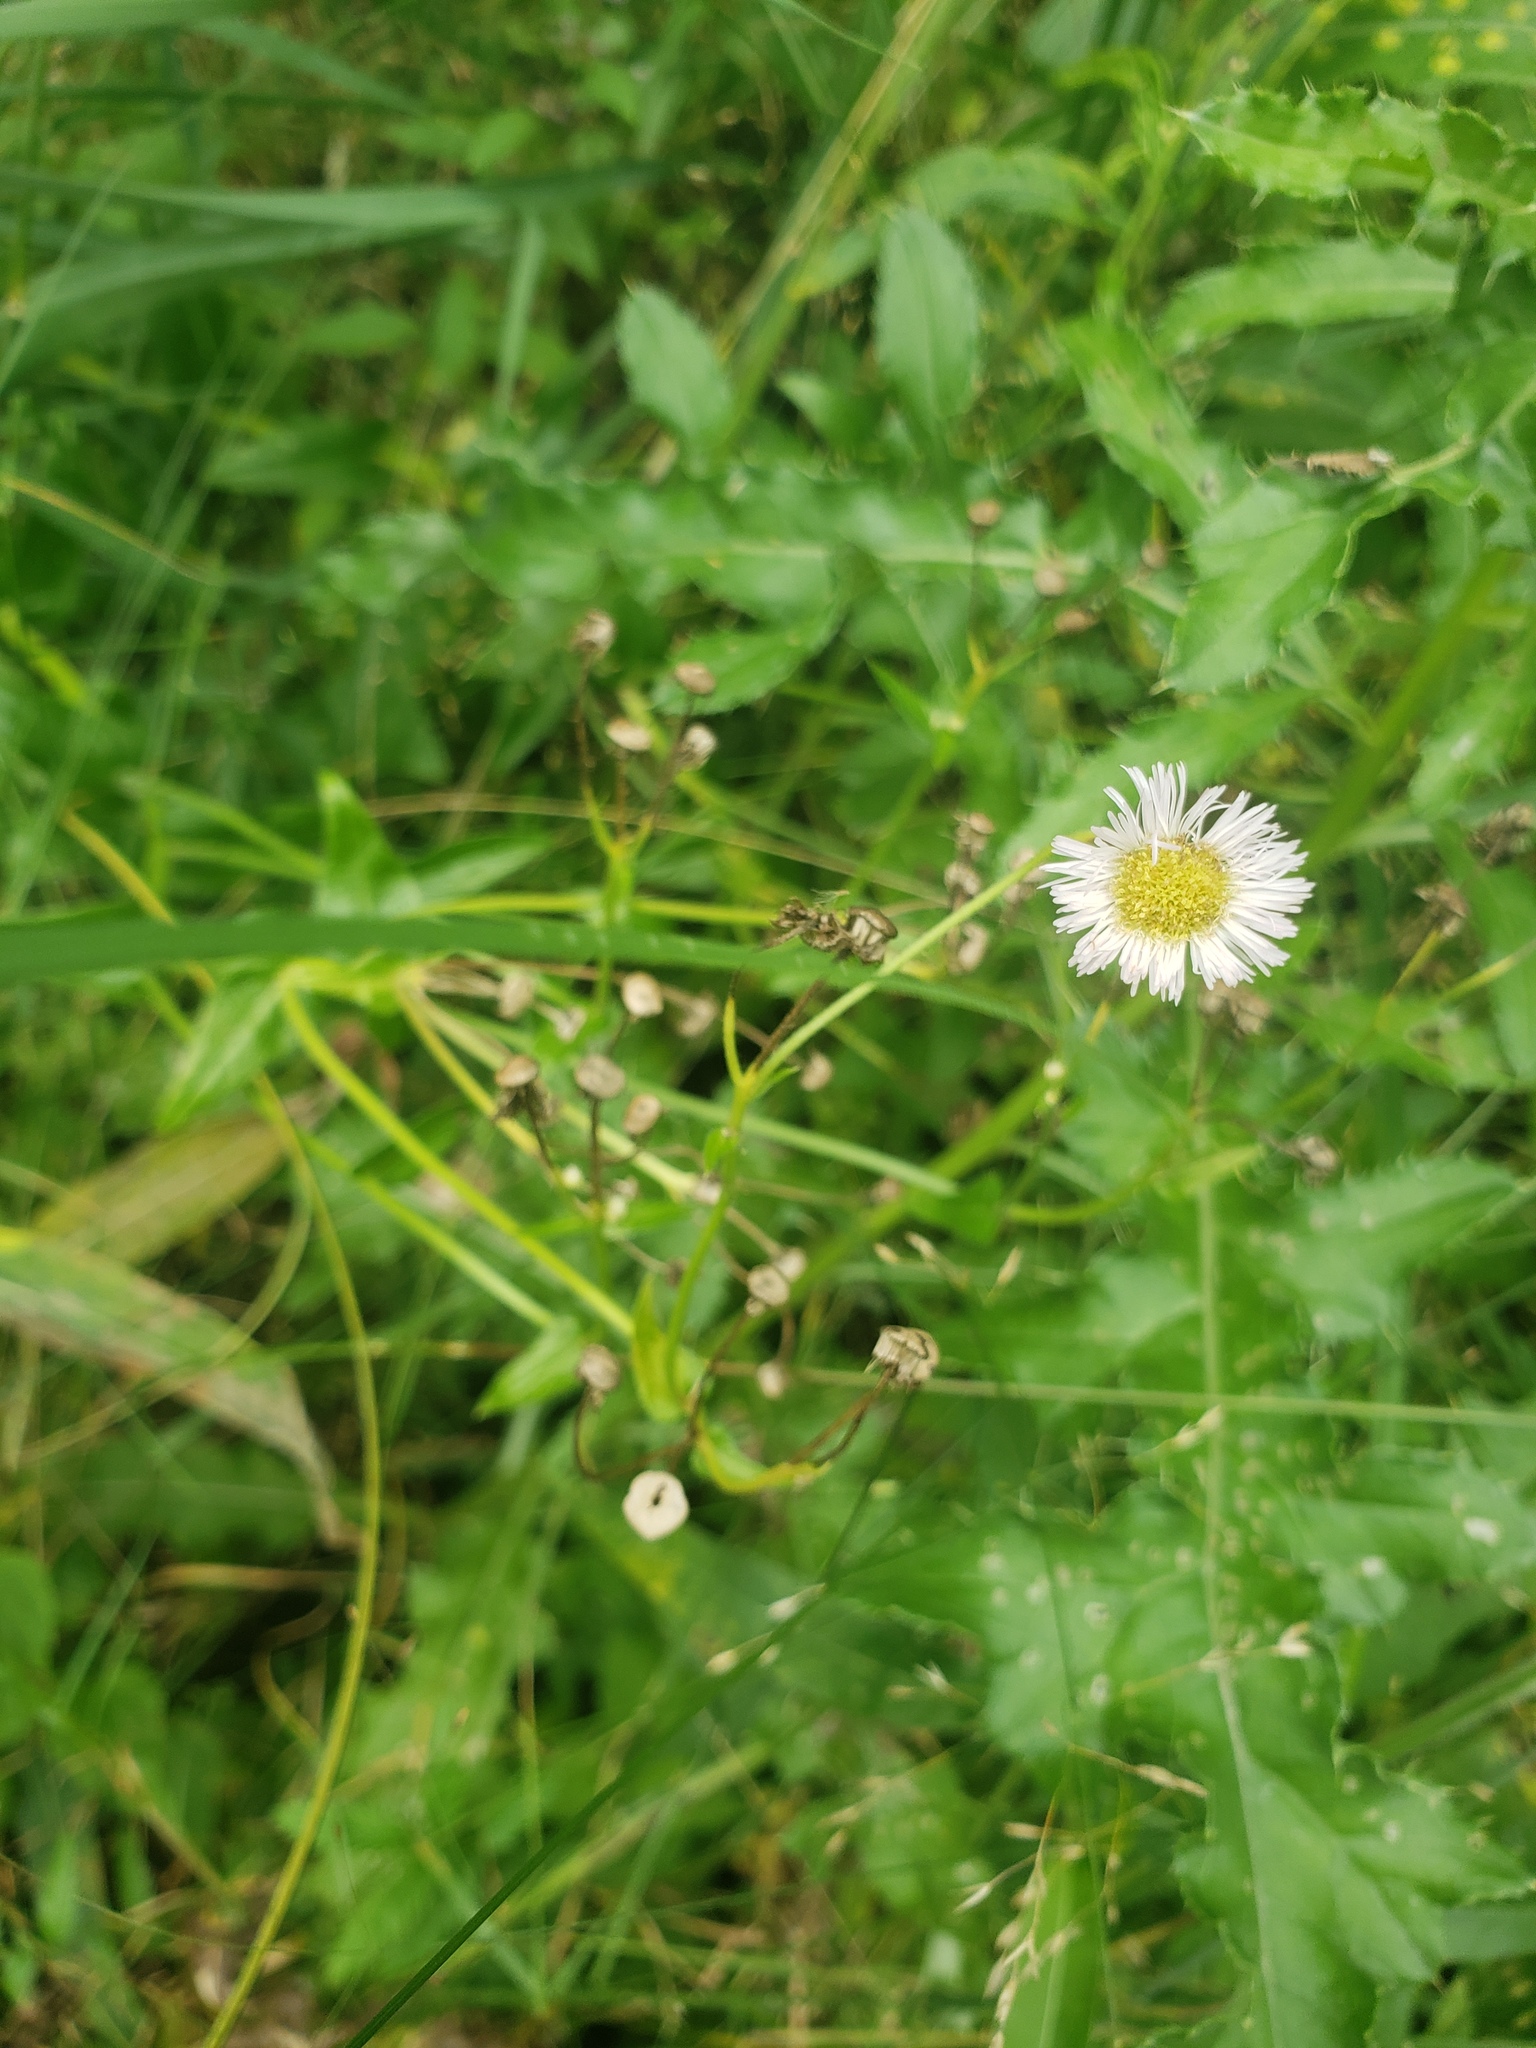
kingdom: Plantae
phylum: Tracheophyta
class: Magnoliopsida
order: Asterales
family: Asteraceae
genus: Erigeron
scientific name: Erigeron philadelphicus
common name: Robin's-plantain
